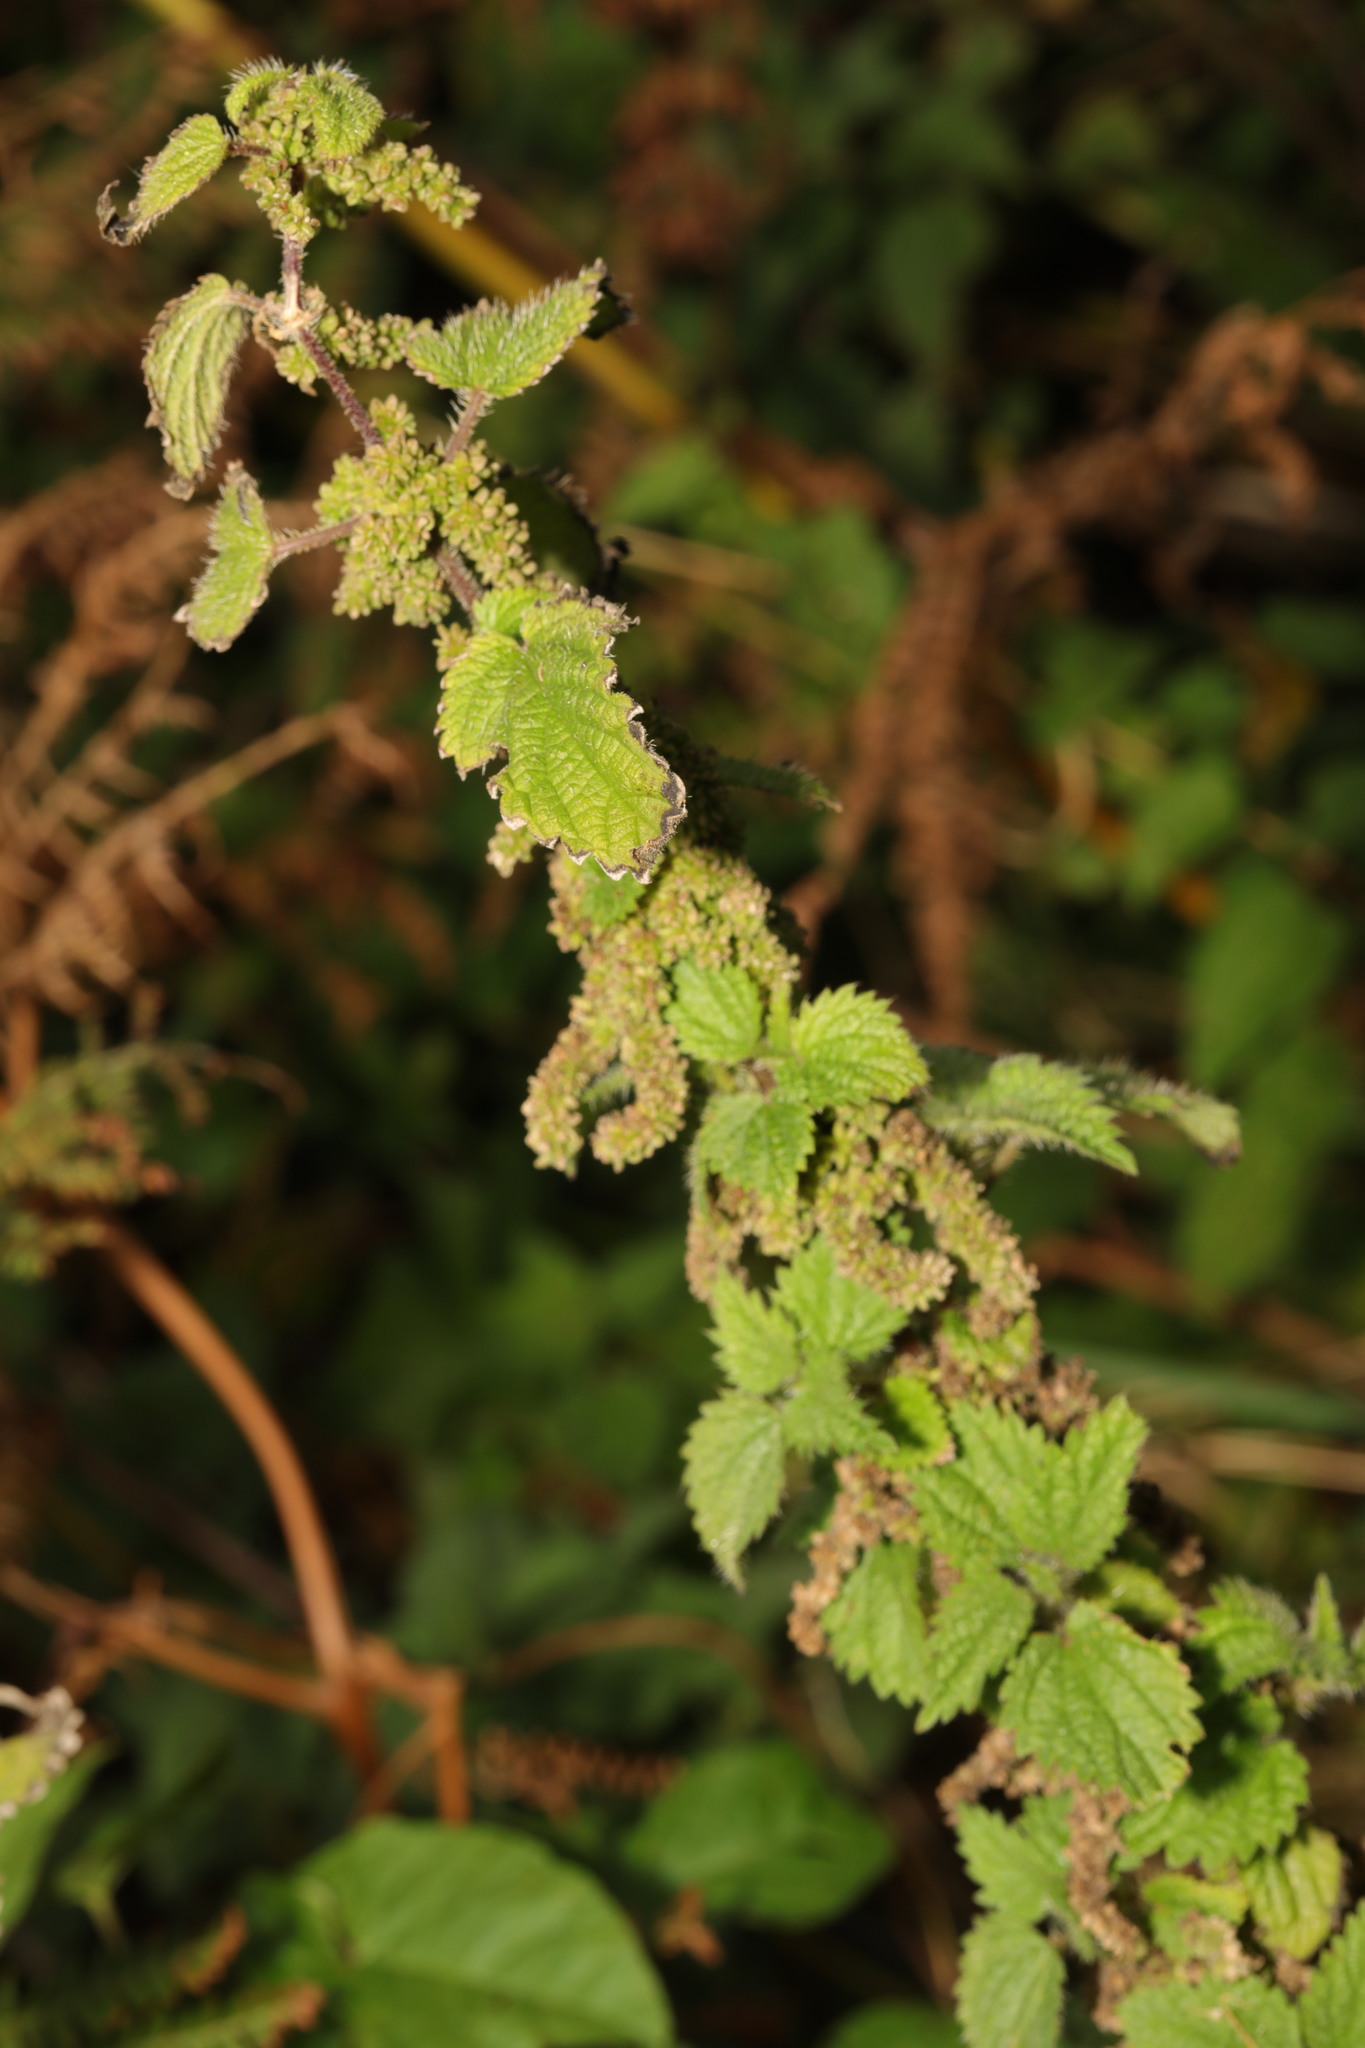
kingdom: Plantae
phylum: Tracheophyta
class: Magnoliopsida
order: Rosales
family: Urticaceae
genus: Urtica
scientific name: Urtica dioica
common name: Common nettle
